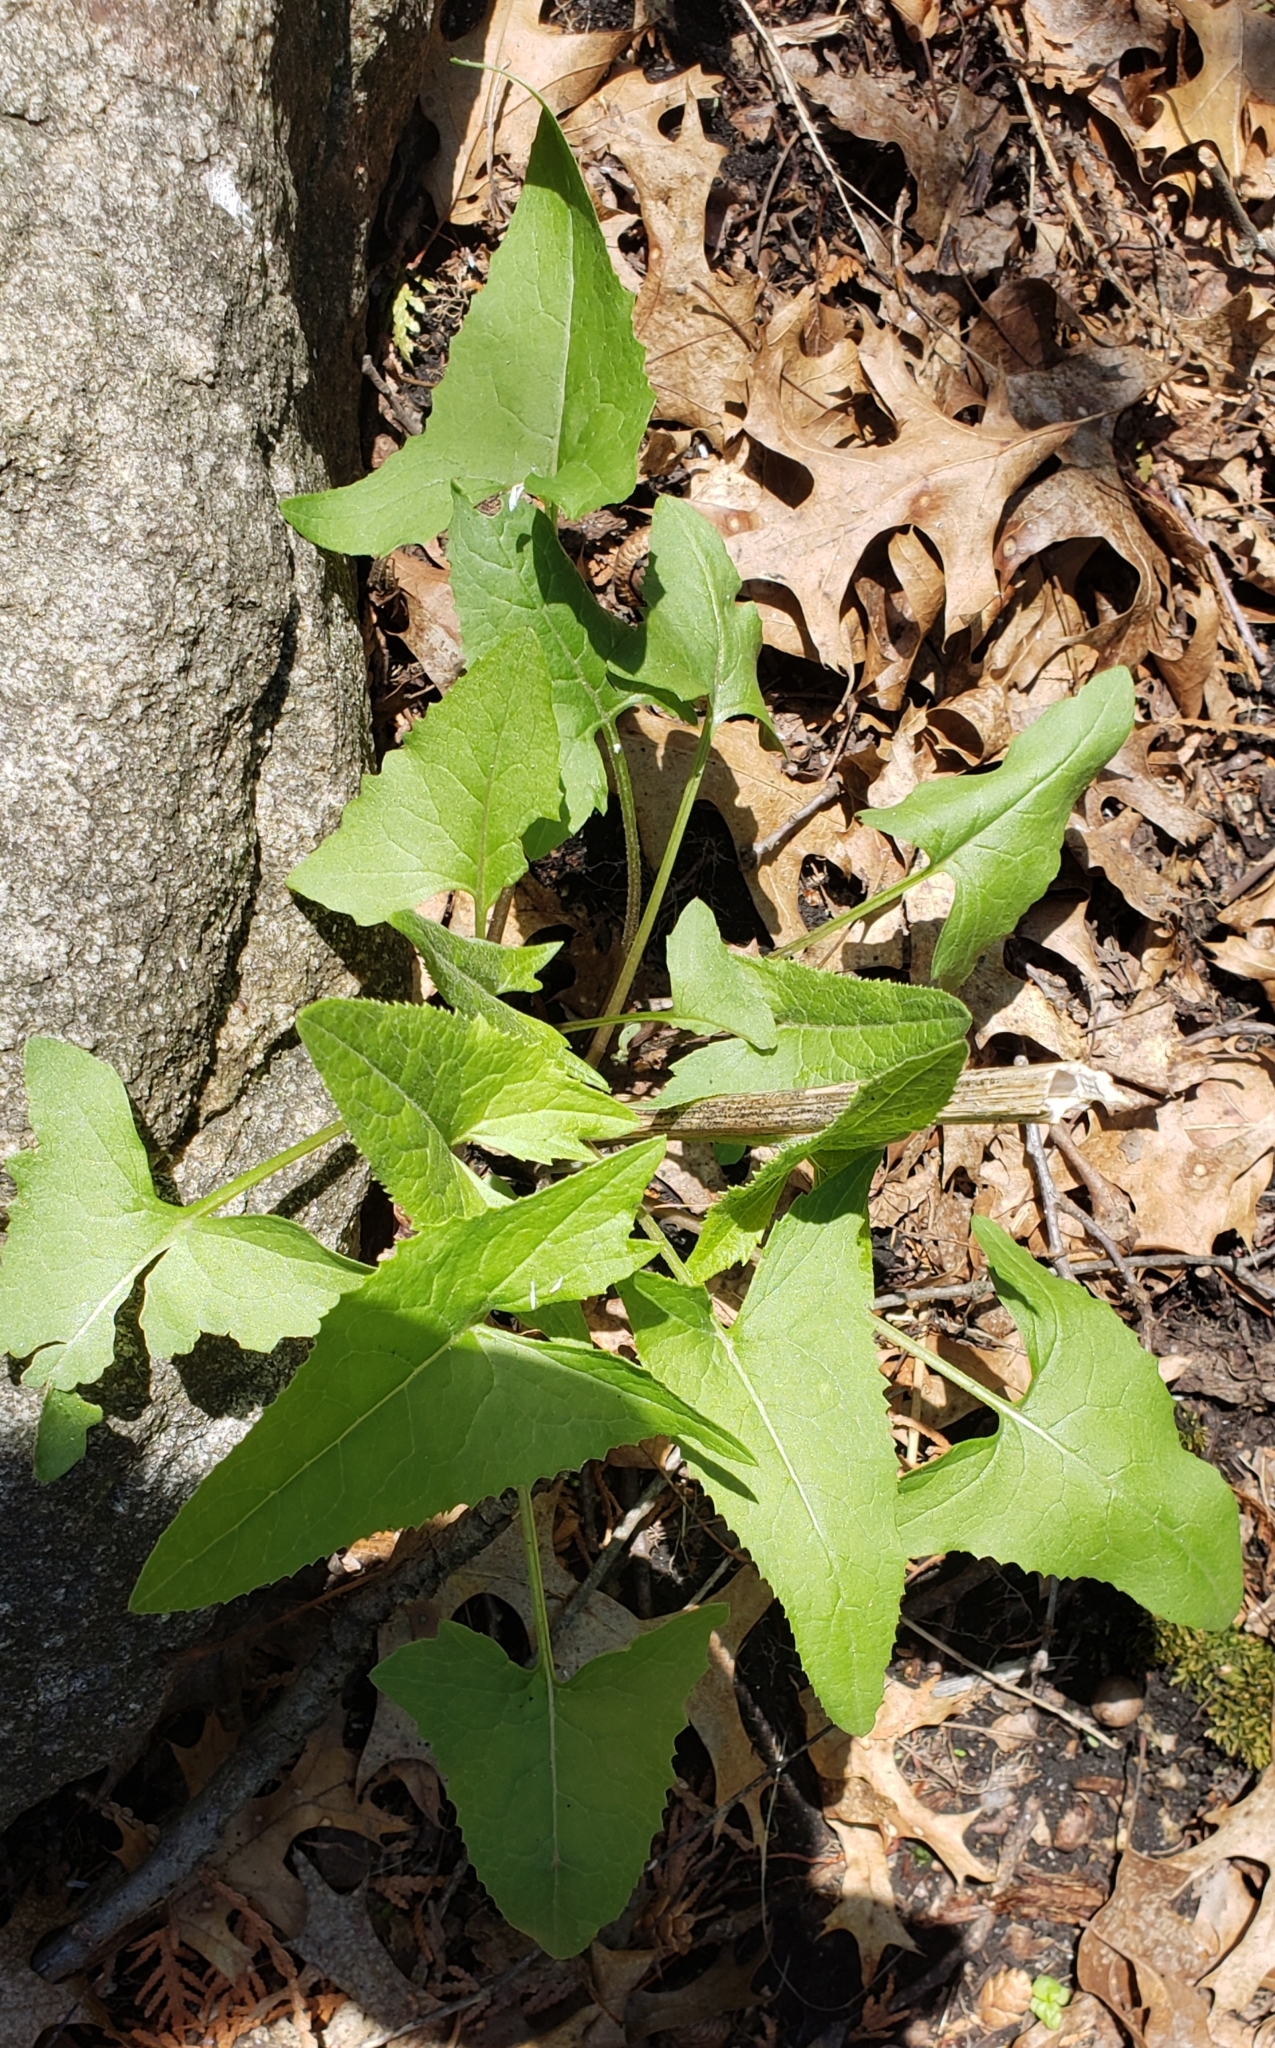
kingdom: Plantae
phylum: Tracheophyta
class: Magnoliopsida
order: Asterales
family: Asteraceae
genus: Hasteola
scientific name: Hasteola suaveolens
